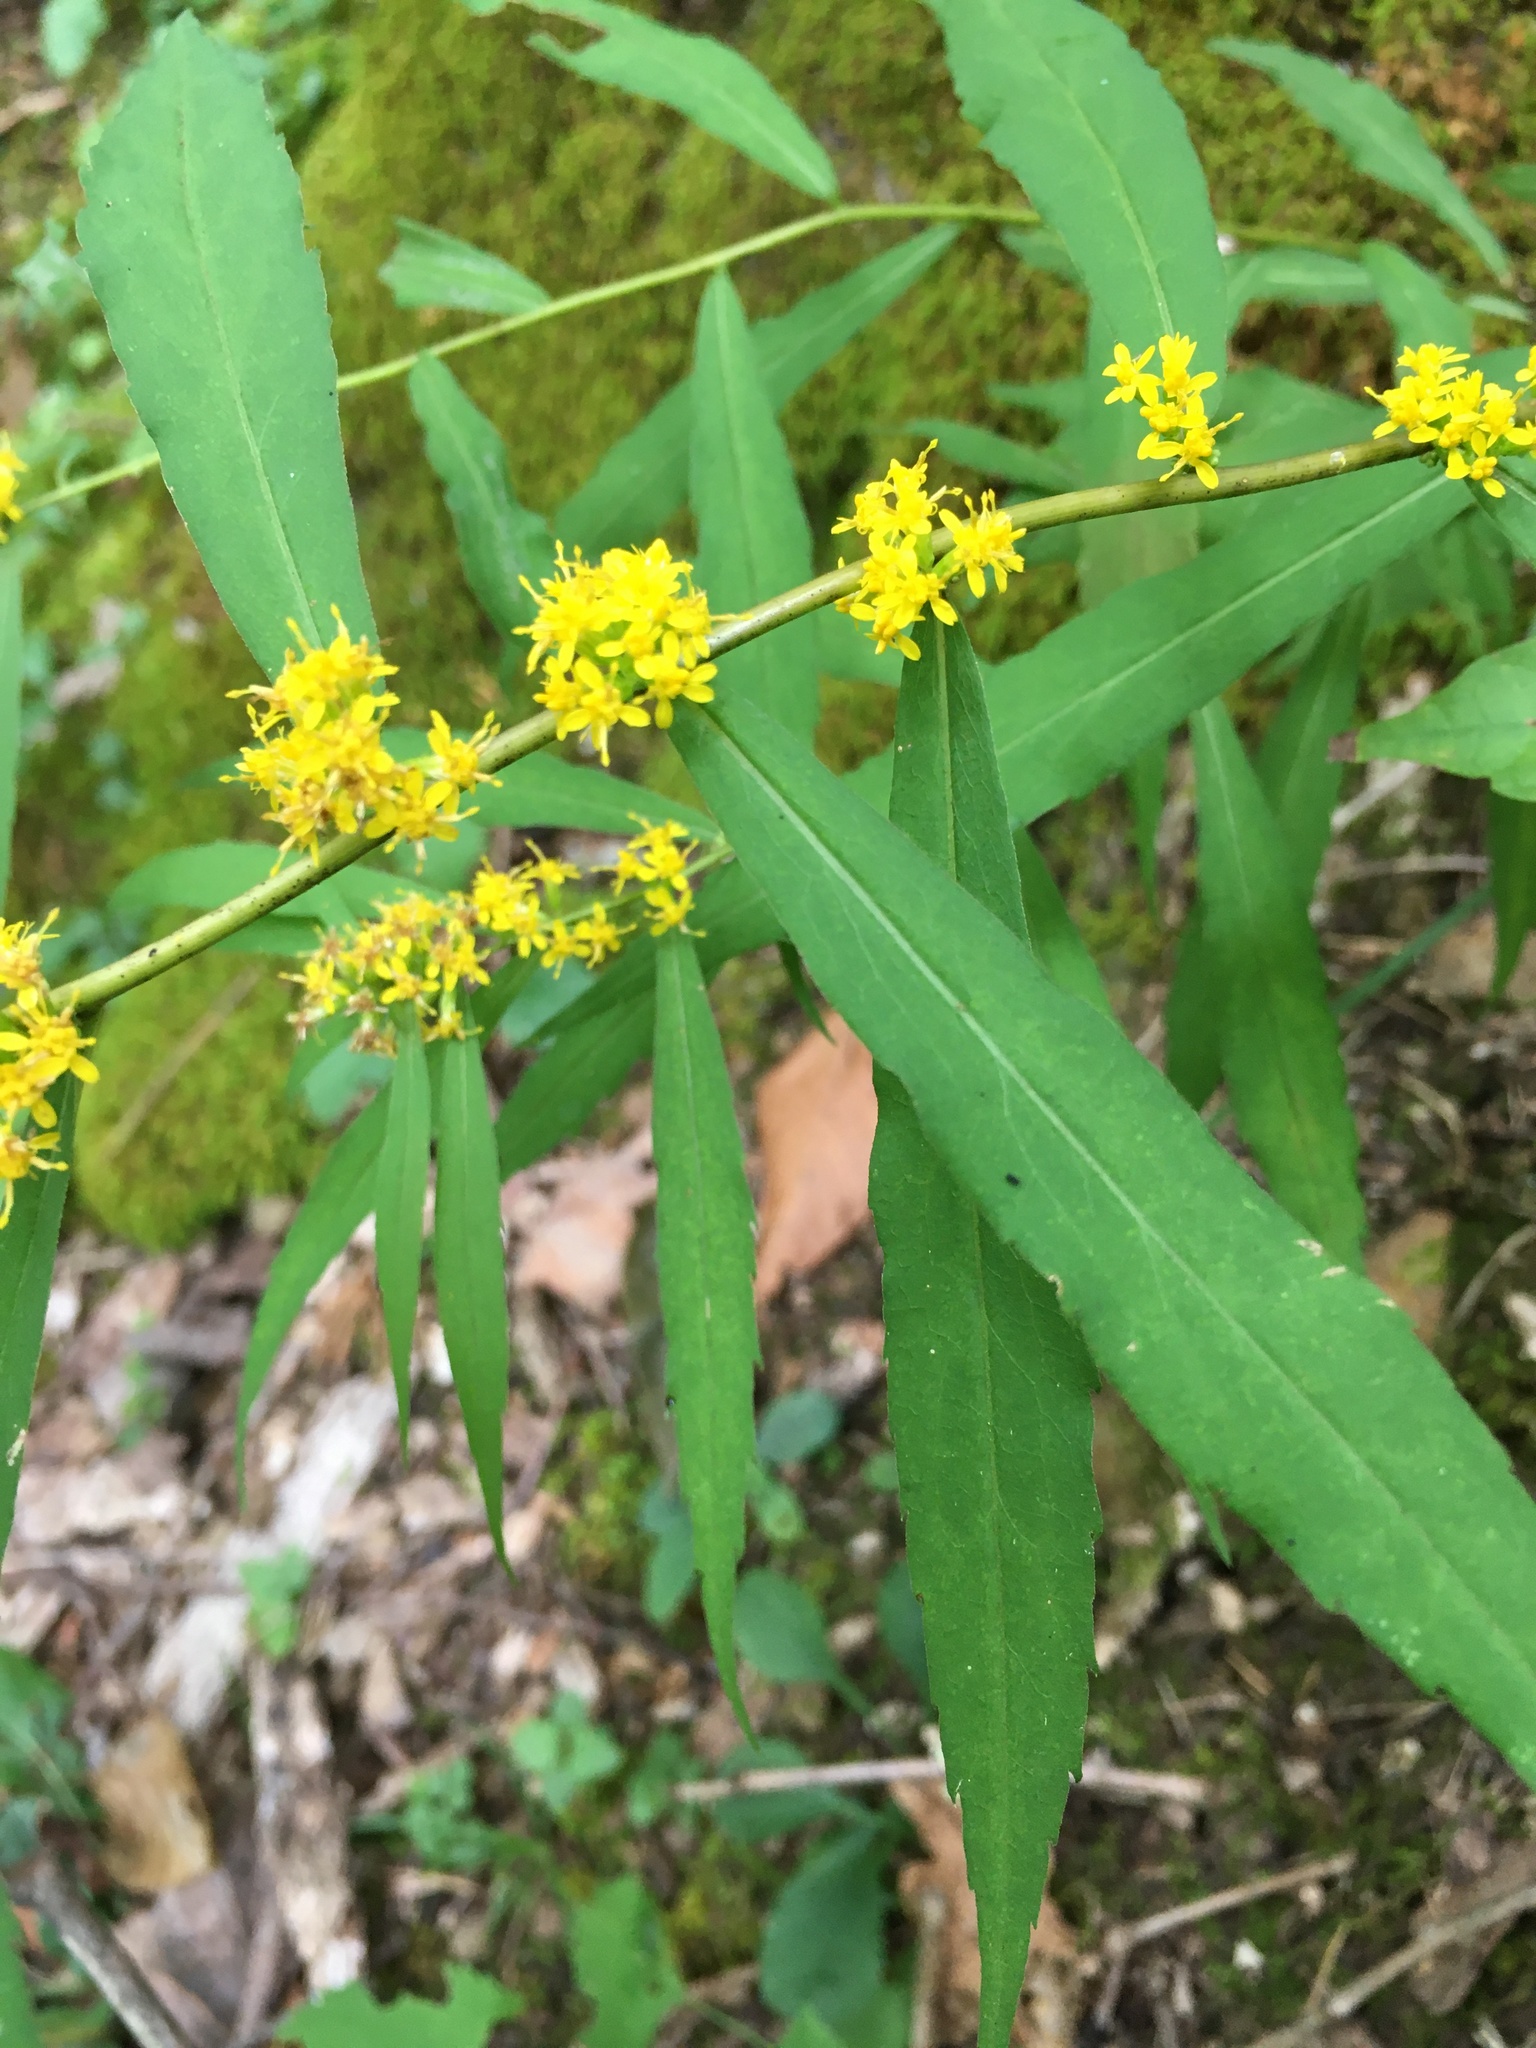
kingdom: Plantae
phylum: Tracheophyta
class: Magnoliopsida
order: Asterales
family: Asteraceae
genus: Solidago
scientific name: Solidago caesia
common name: Woodland goldenrod
